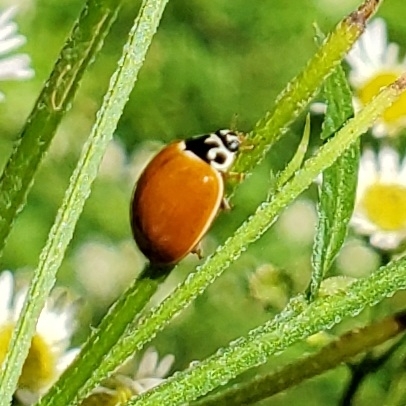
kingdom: Animalia
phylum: Arthropoda
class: Insecta
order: Coleoptera
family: Coccinellidae
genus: Cycloneda
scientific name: Cycloneda munda
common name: Polished lady beetle
